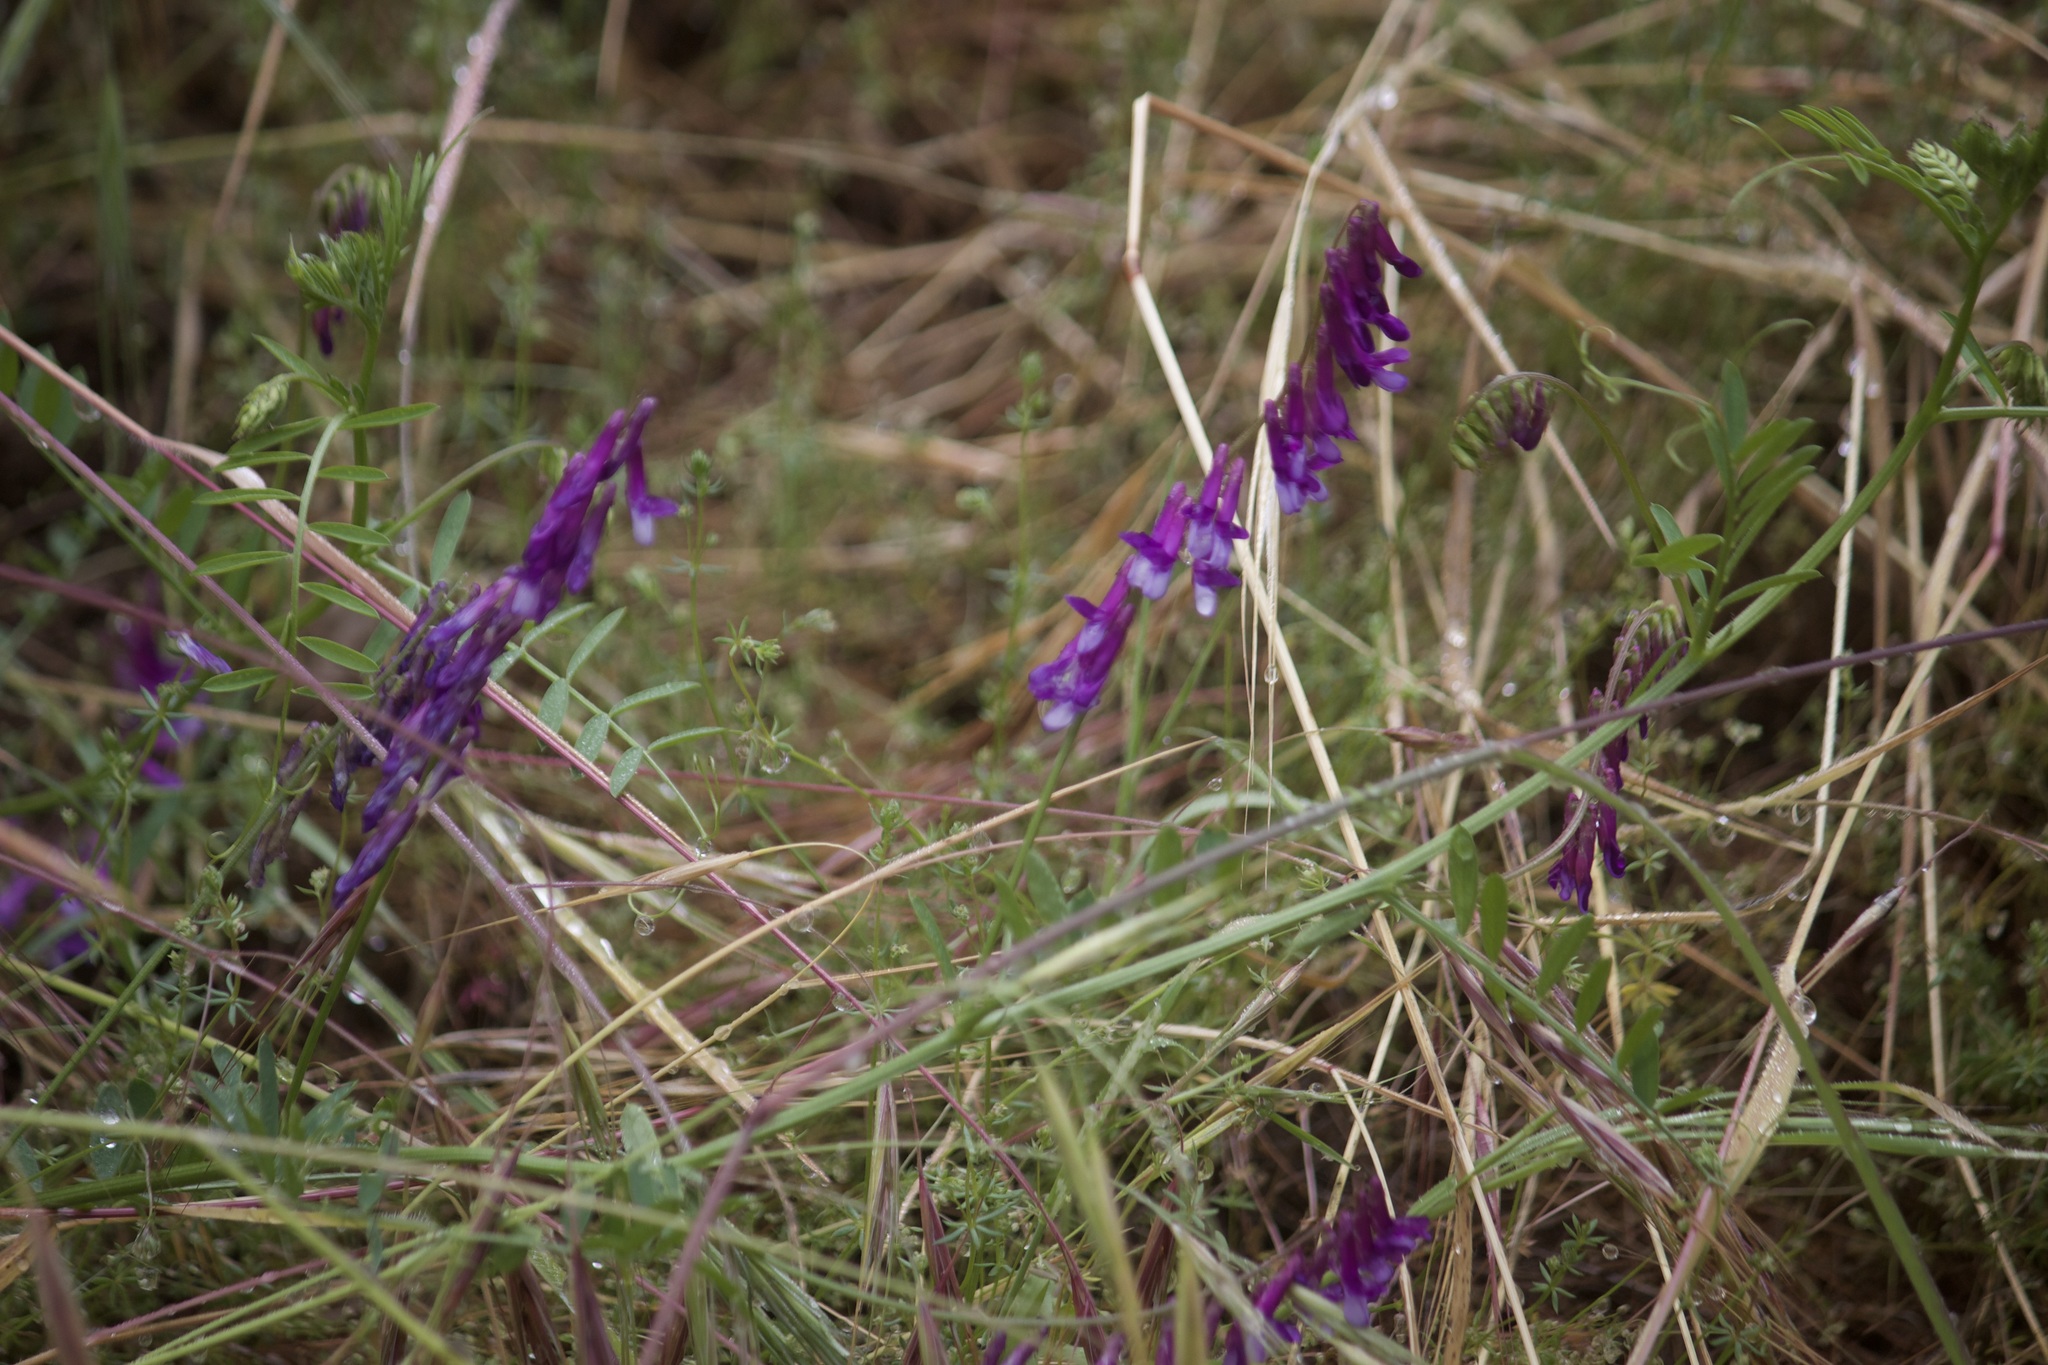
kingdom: Plantae
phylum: Tracheophyta
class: Magnoliopsida
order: Fabales
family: Fabaceae
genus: Vicia
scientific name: Vicia villosa
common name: Fodder vetch
